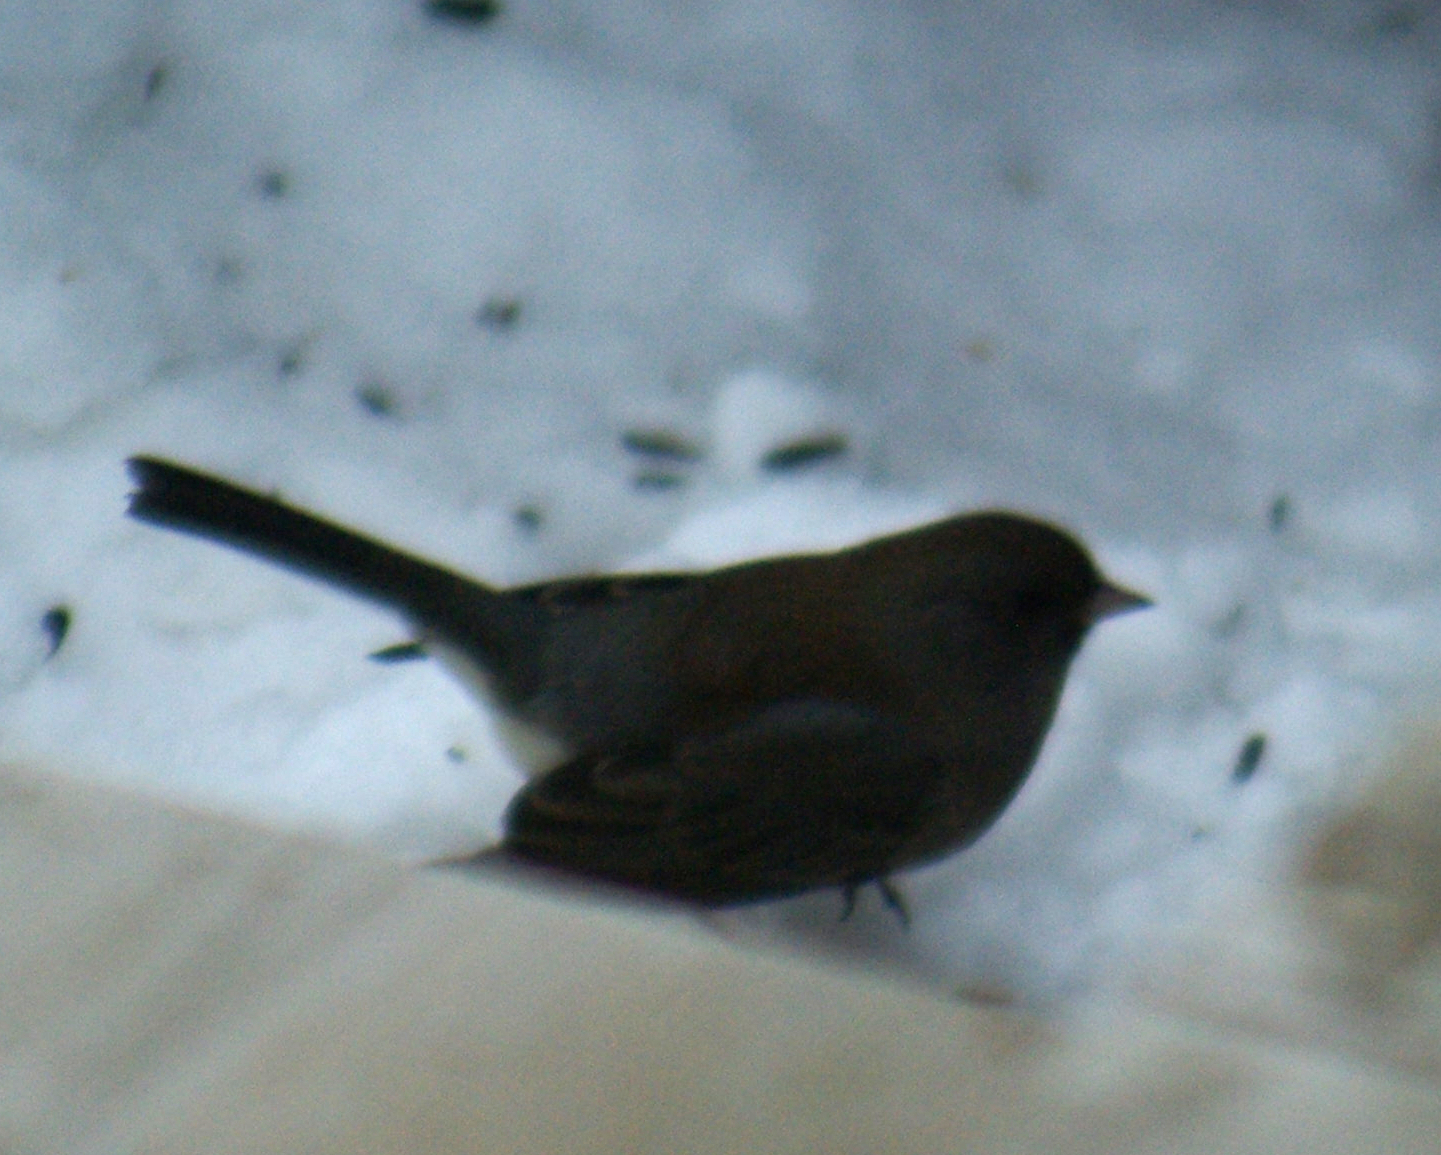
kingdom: Animalia
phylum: Chordata
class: Aves
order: Passeriformes
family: Passerellidae
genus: Junco
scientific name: Junco hyemalis
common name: Dark-eyed junco
